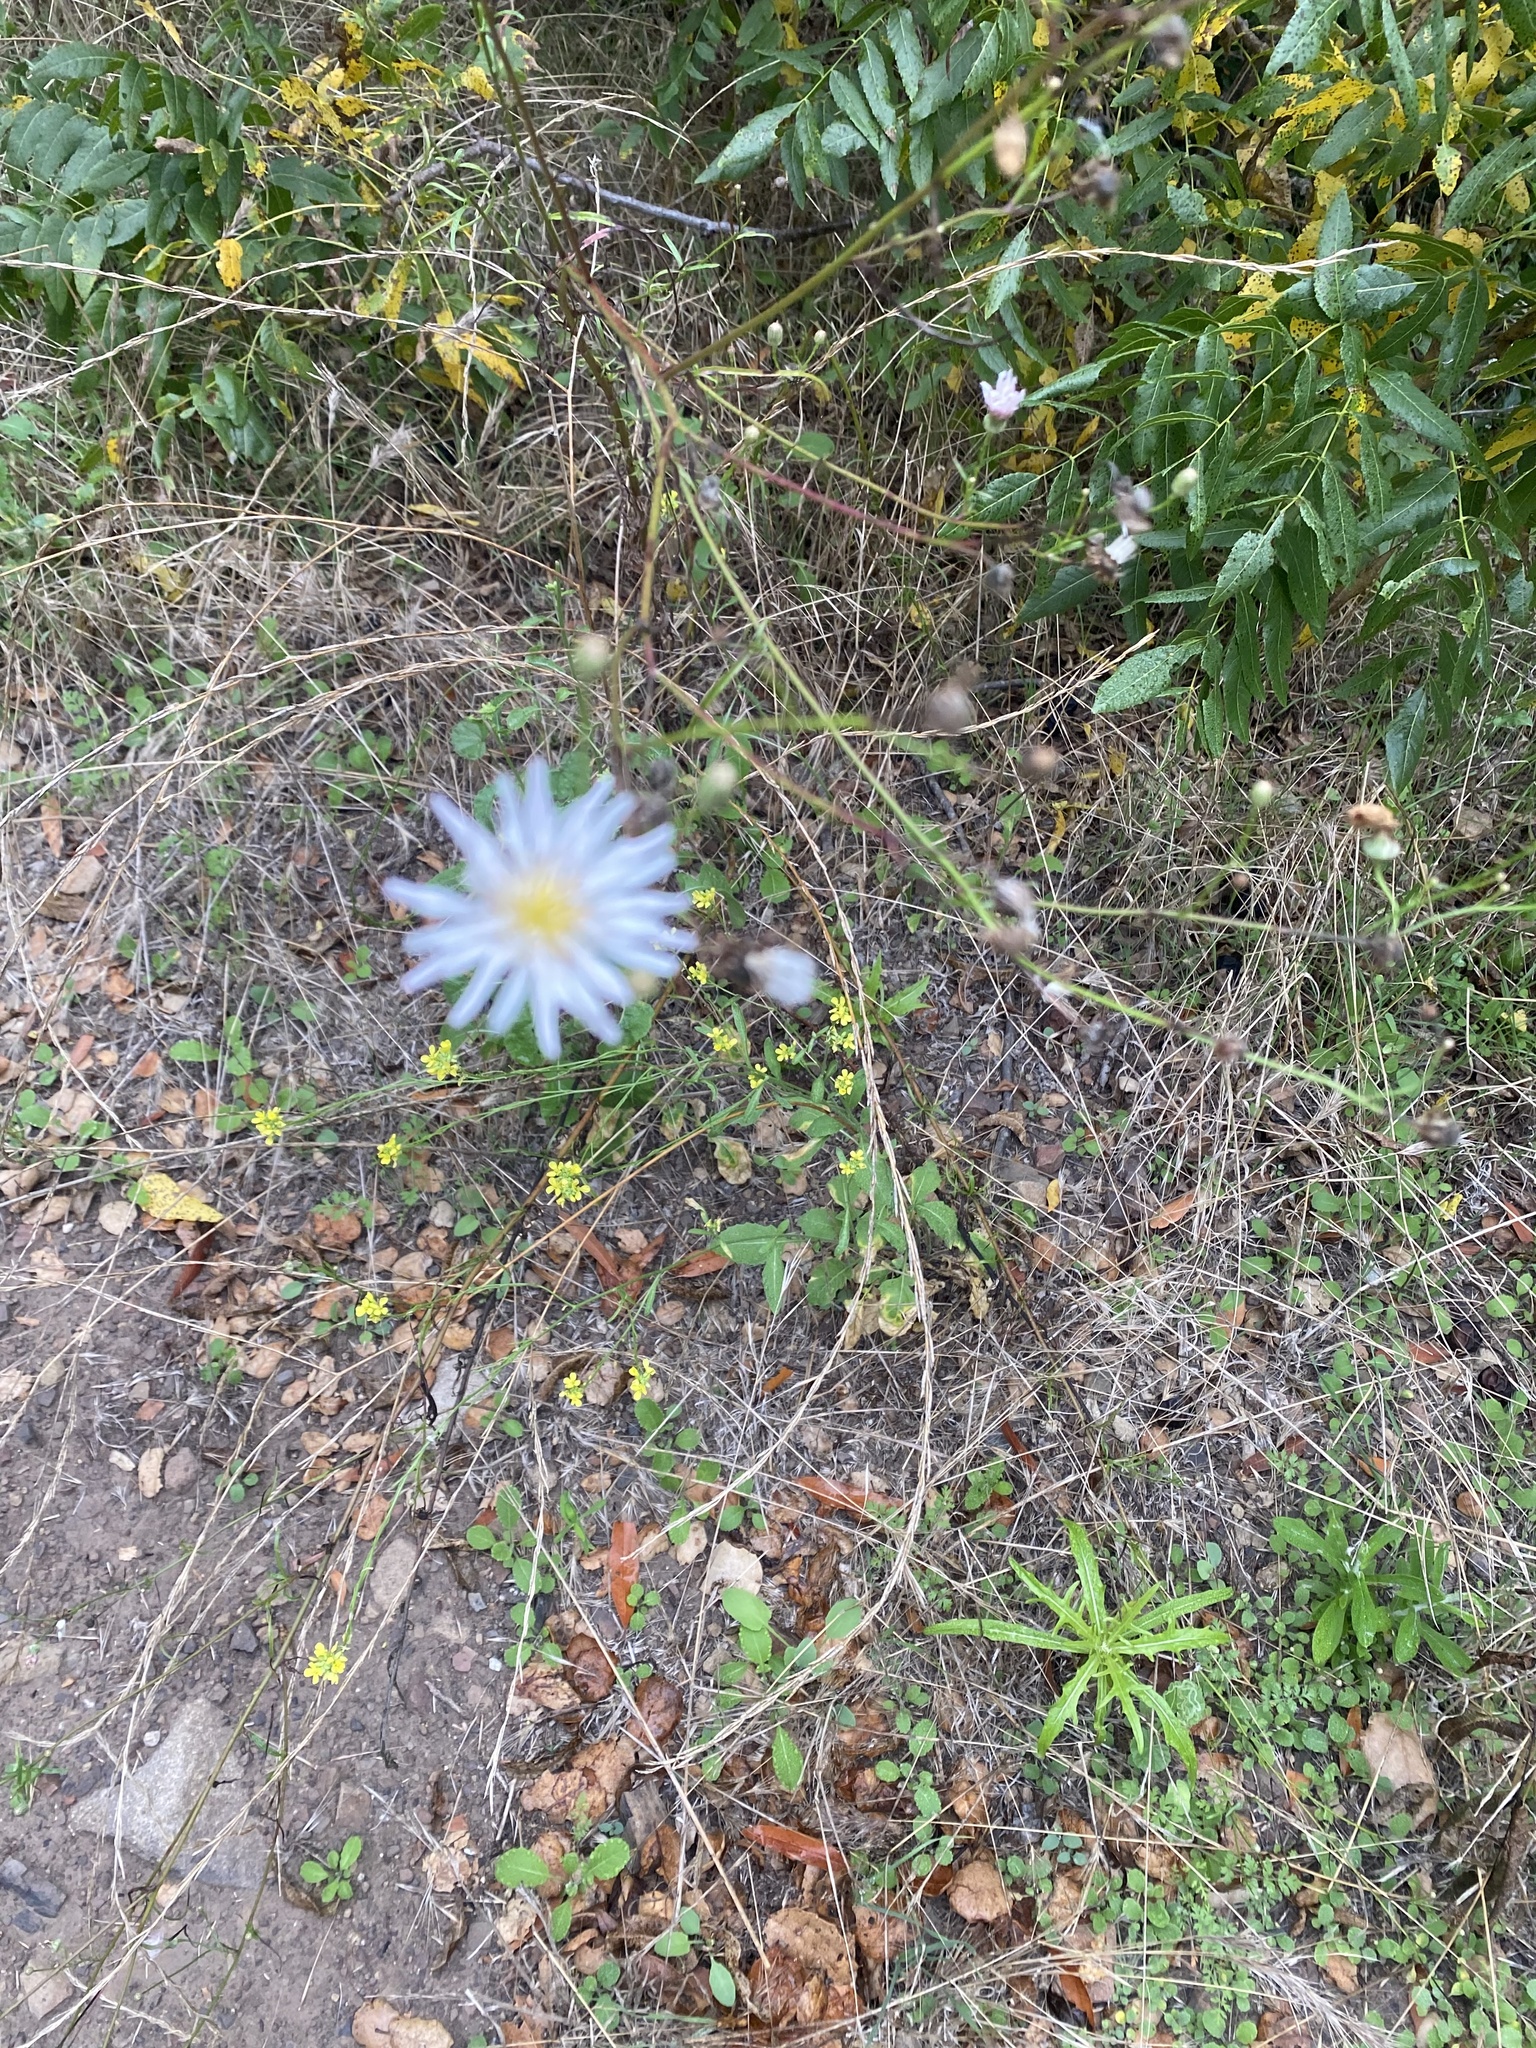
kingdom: Plantae
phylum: Tracheophyta
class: Magnoliopsida
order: Asterales
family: Asteraceae
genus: Malacothrix
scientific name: Malacothrix saxatilis
